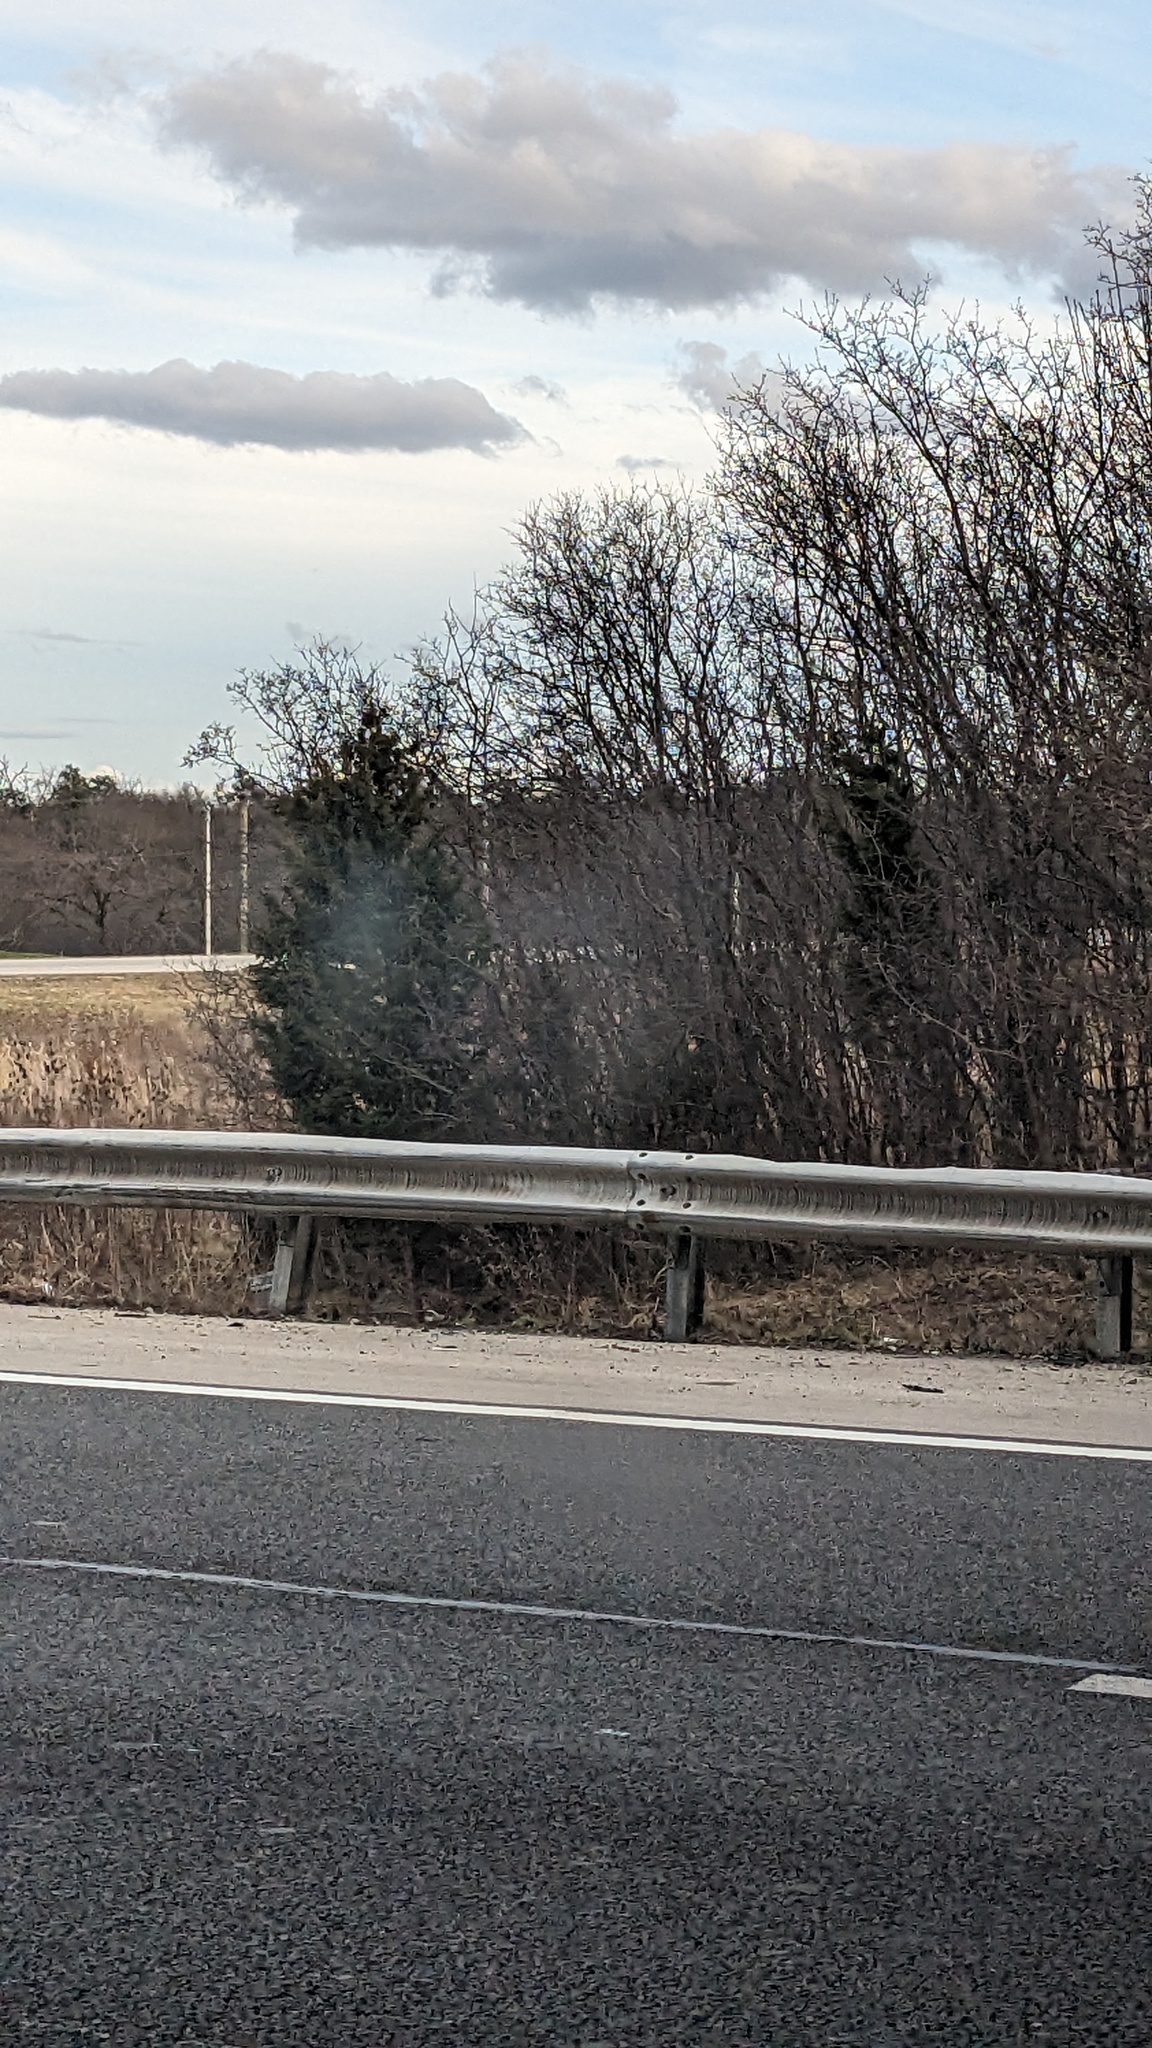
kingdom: Plantae
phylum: Tracheophyta
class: Pinopsida
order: Pinales
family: Cupressaceae
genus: Juniperus
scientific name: Juniperus virginiana
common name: Red juniper
